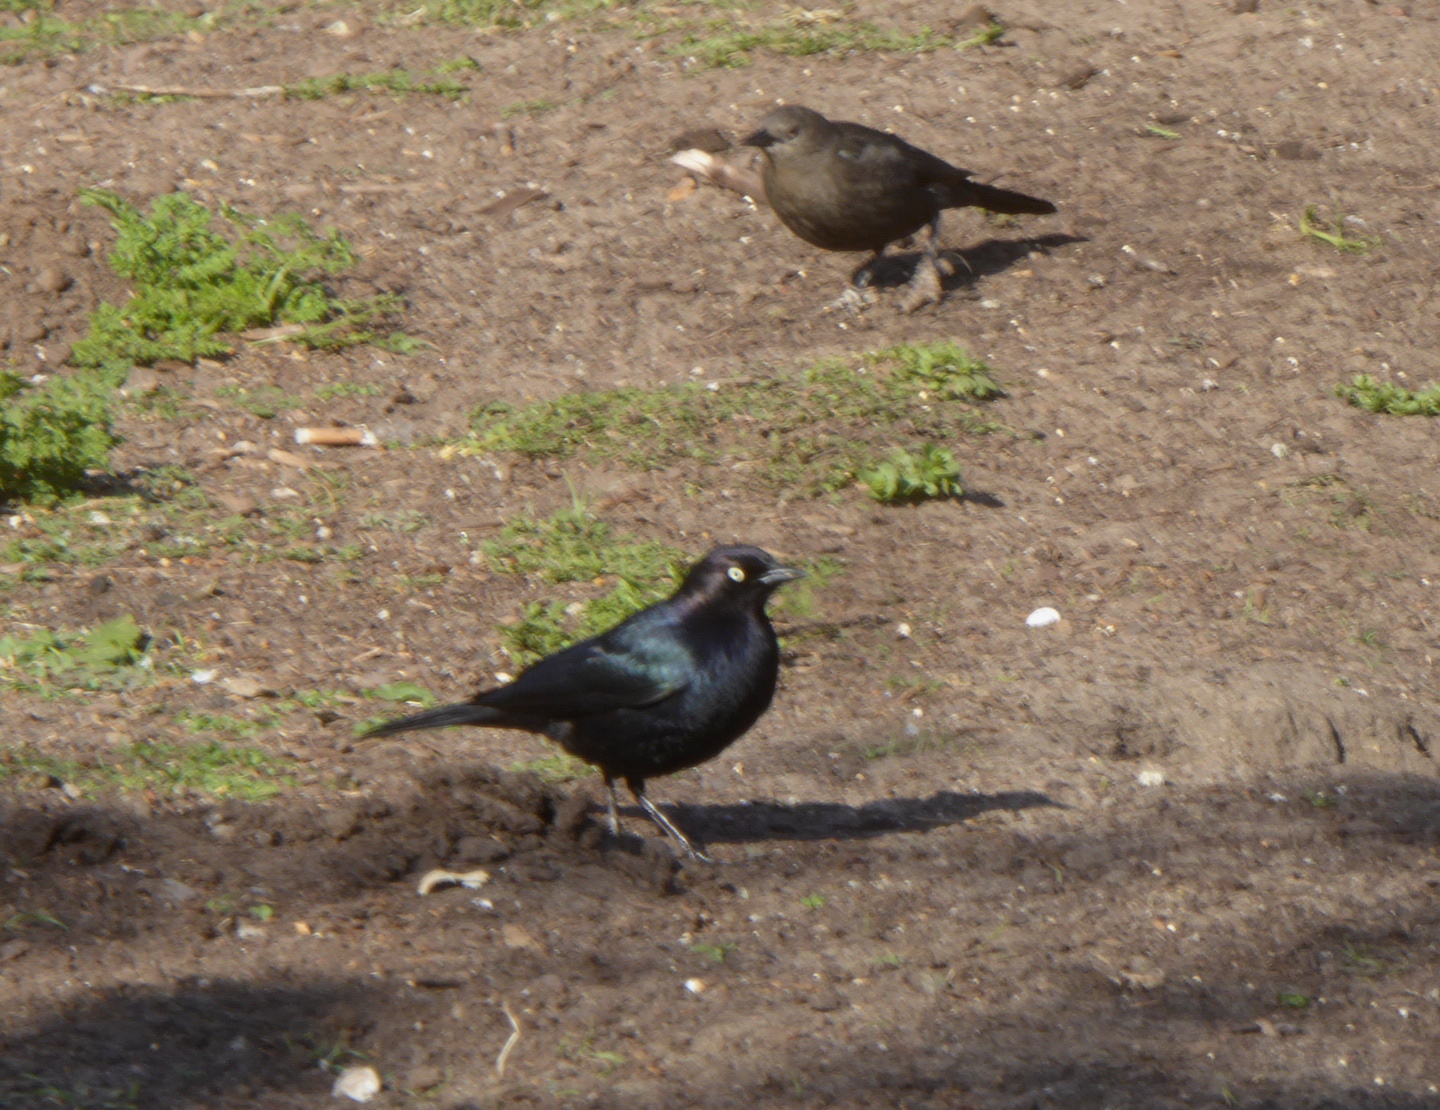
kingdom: Animalia
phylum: Chordata
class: Aves
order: Passeriformes
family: Icteridae
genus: Euphagus
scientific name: Euphagus cyanocephalus
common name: Brewer's blackbird
